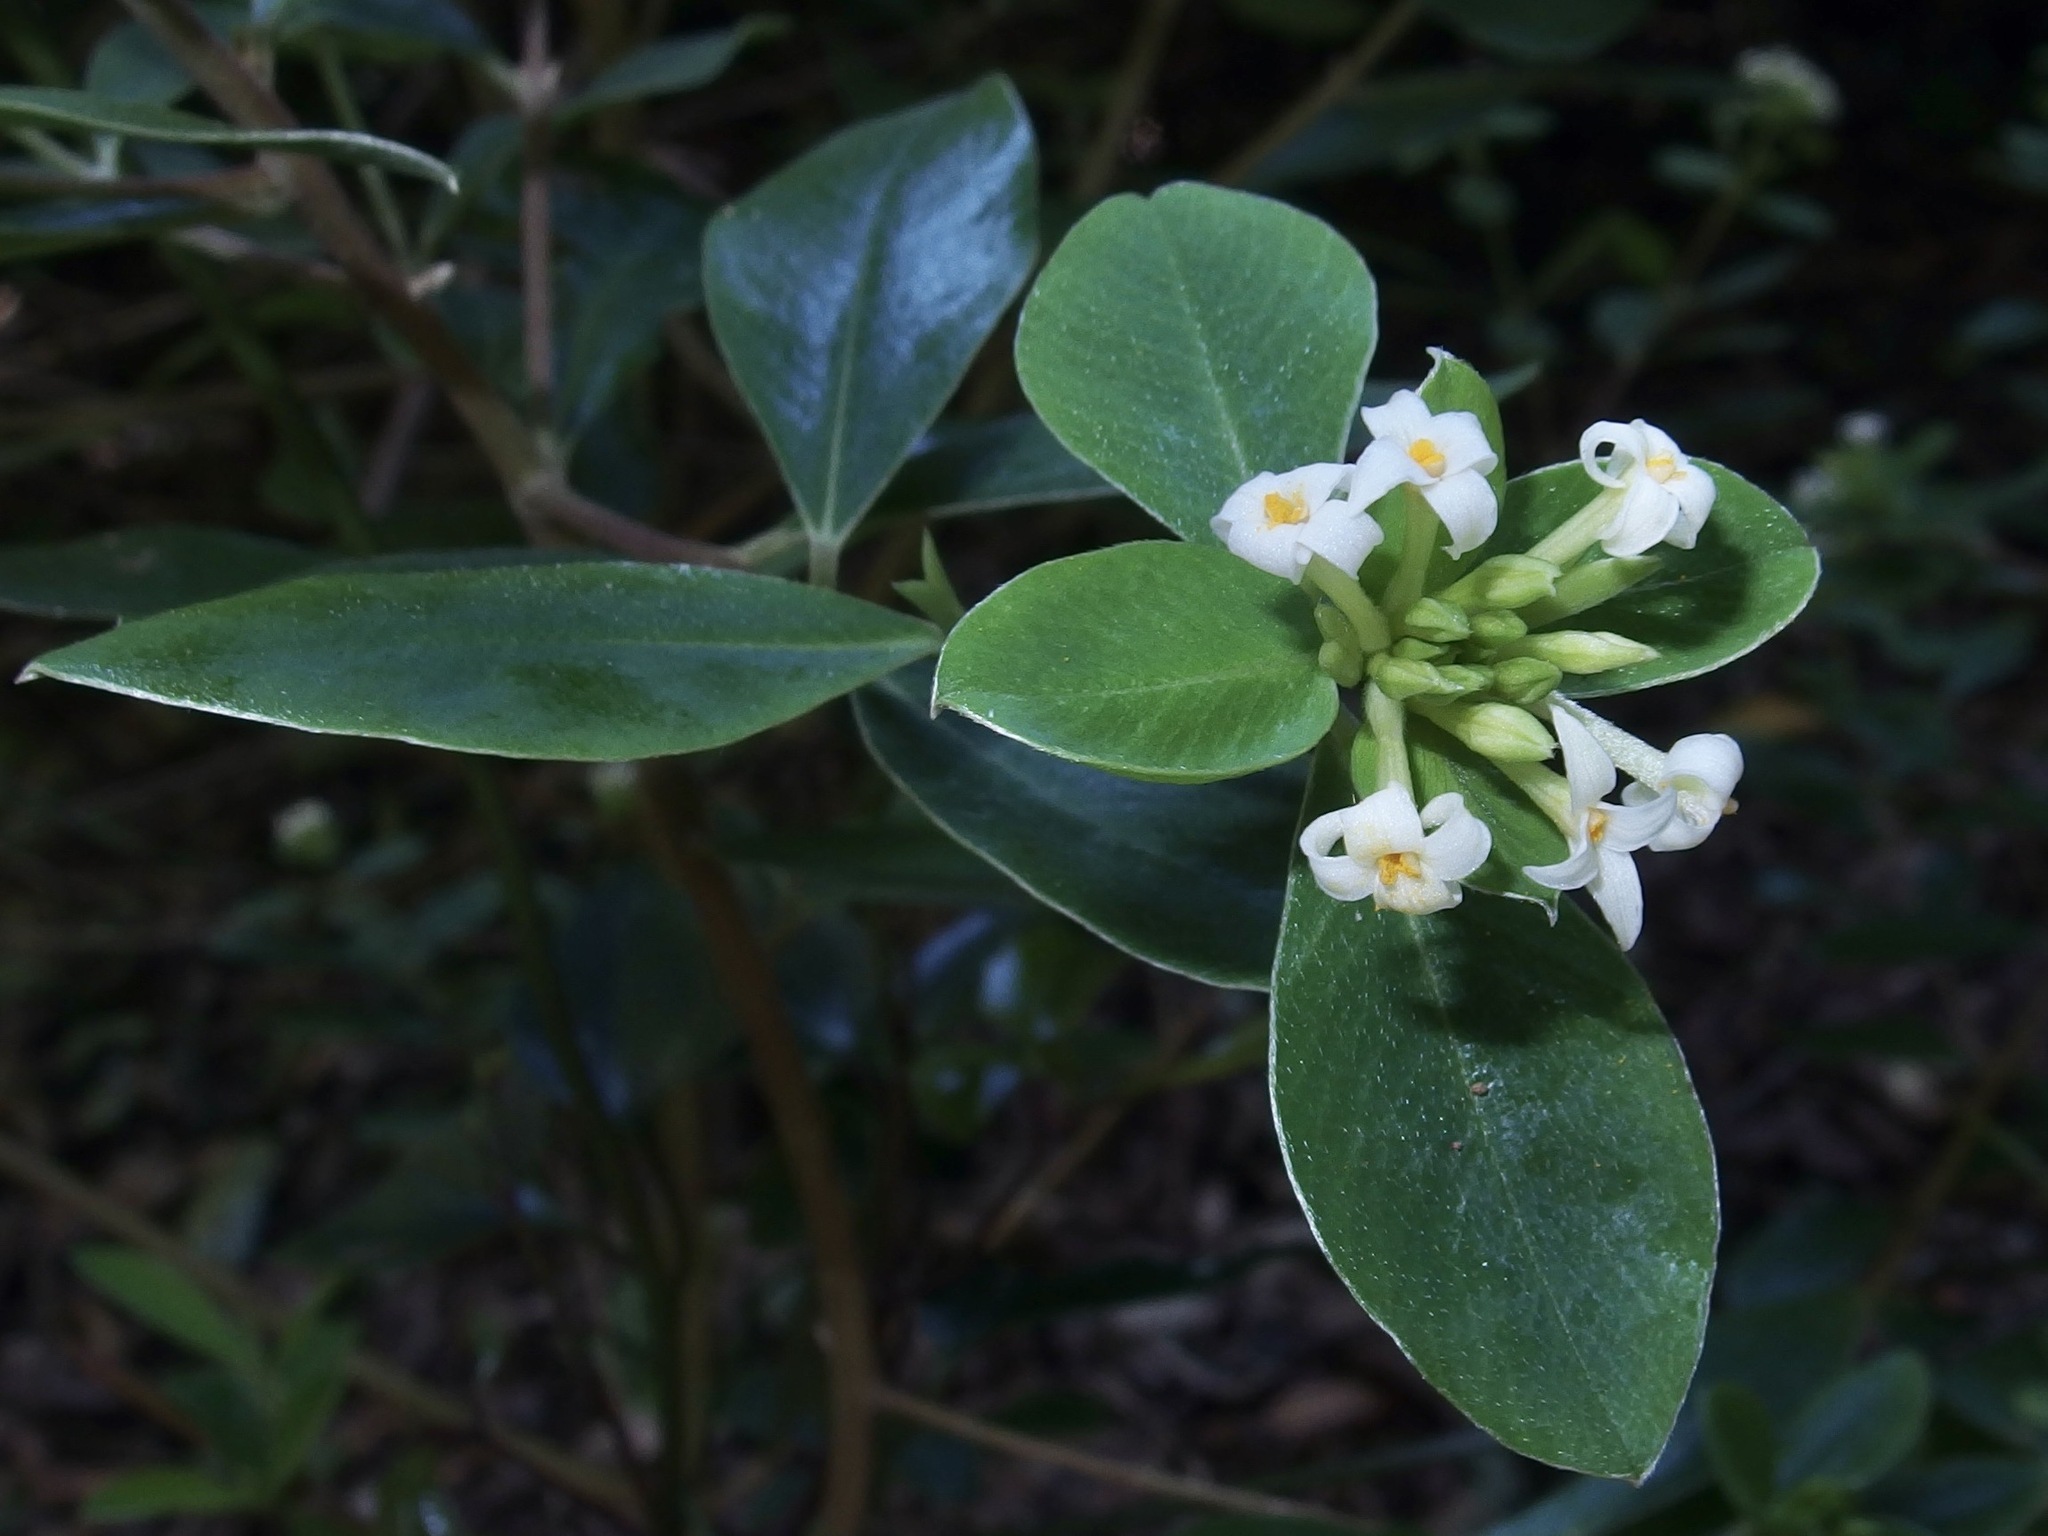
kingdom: Plantae
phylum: Tracheophyta
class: Magnoliopsida
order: Malvales
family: Thymelaeaceae
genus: Pimelea
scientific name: Pimelea gigandra
